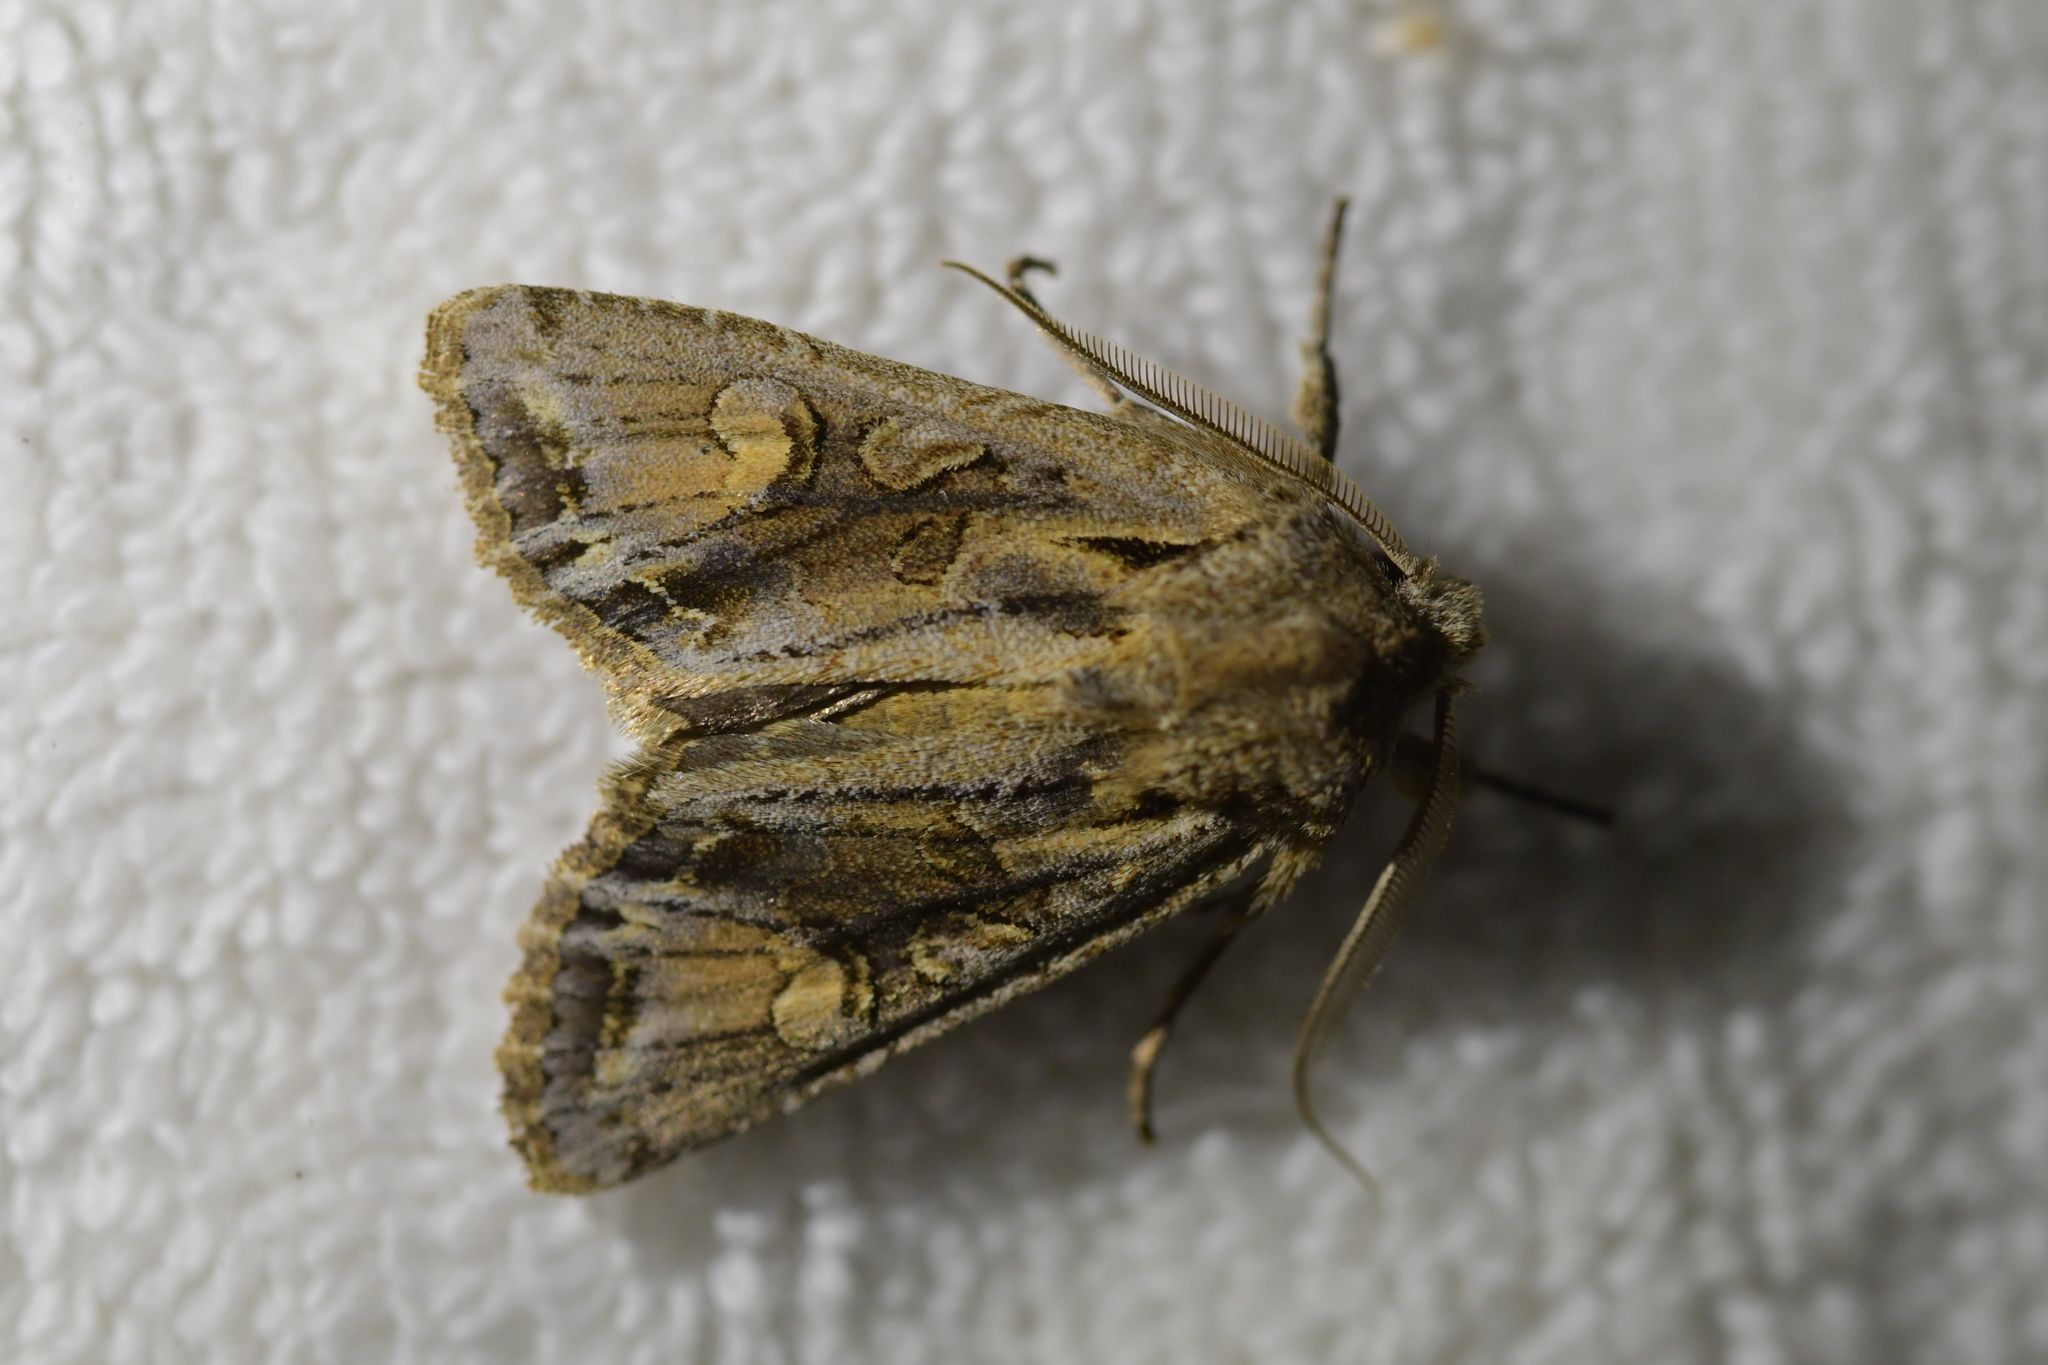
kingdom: Animalia
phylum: Arthropoda
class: Insecta
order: Lepidoptera
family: Noctuidae
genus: Ichneutica
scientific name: Ichneutica
